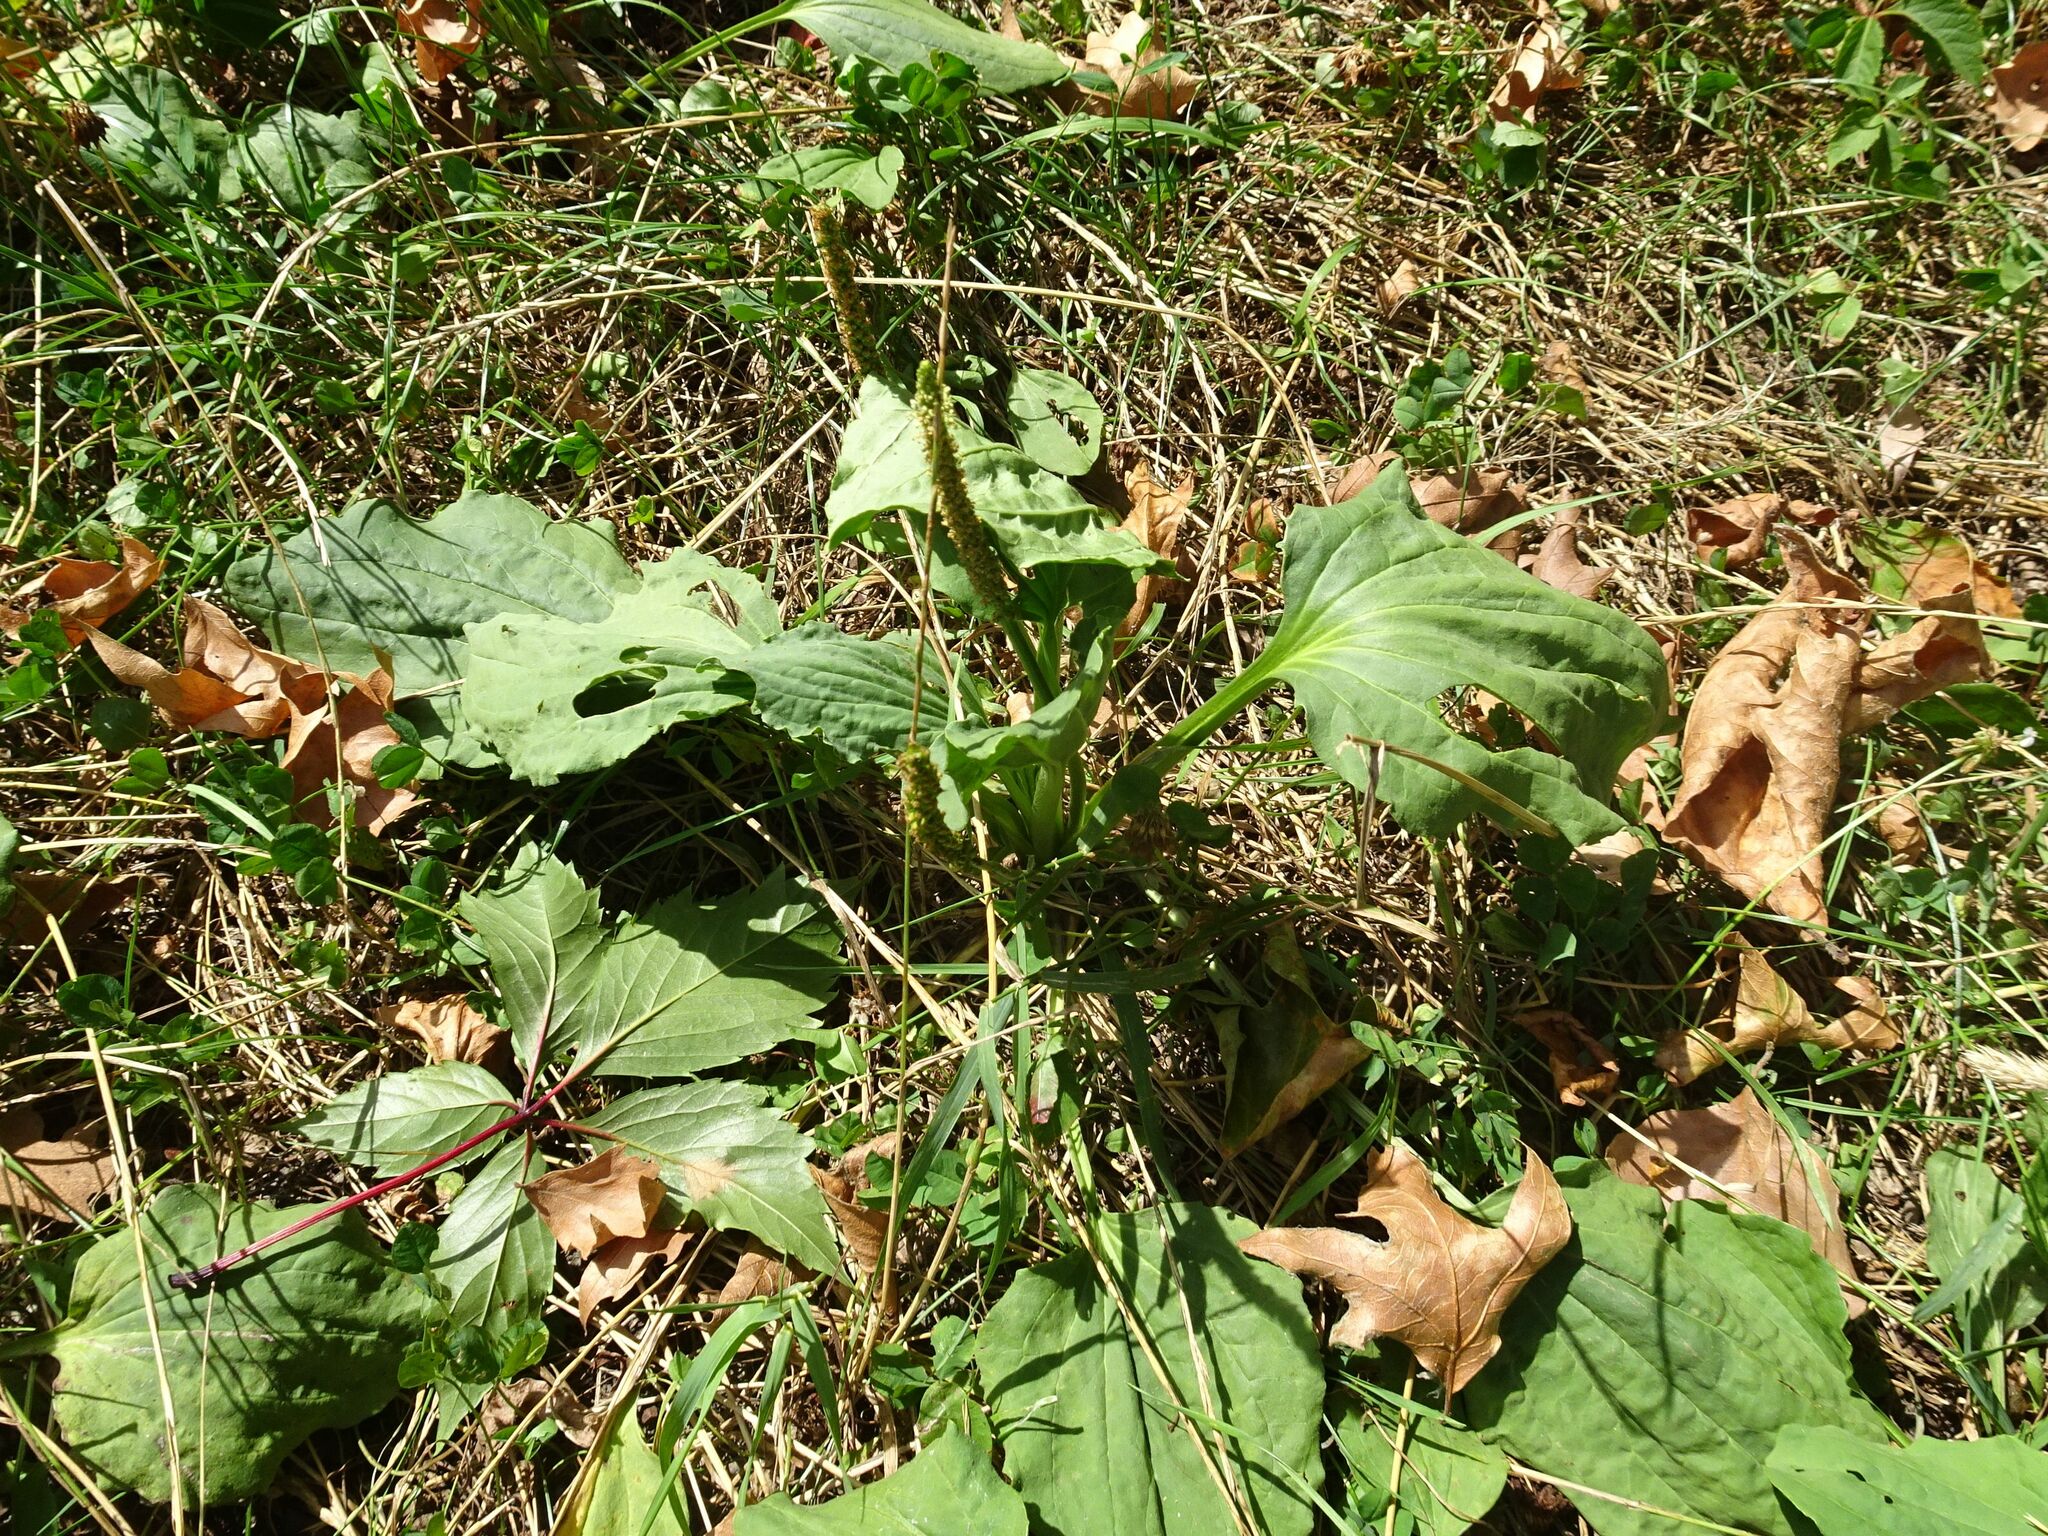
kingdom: Plantae
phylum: Tracheophyta
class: Magnoliopsida
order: Lamiales
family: Plantaginaceae
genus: Plantago
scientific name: Plantago major
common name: Common plantain
